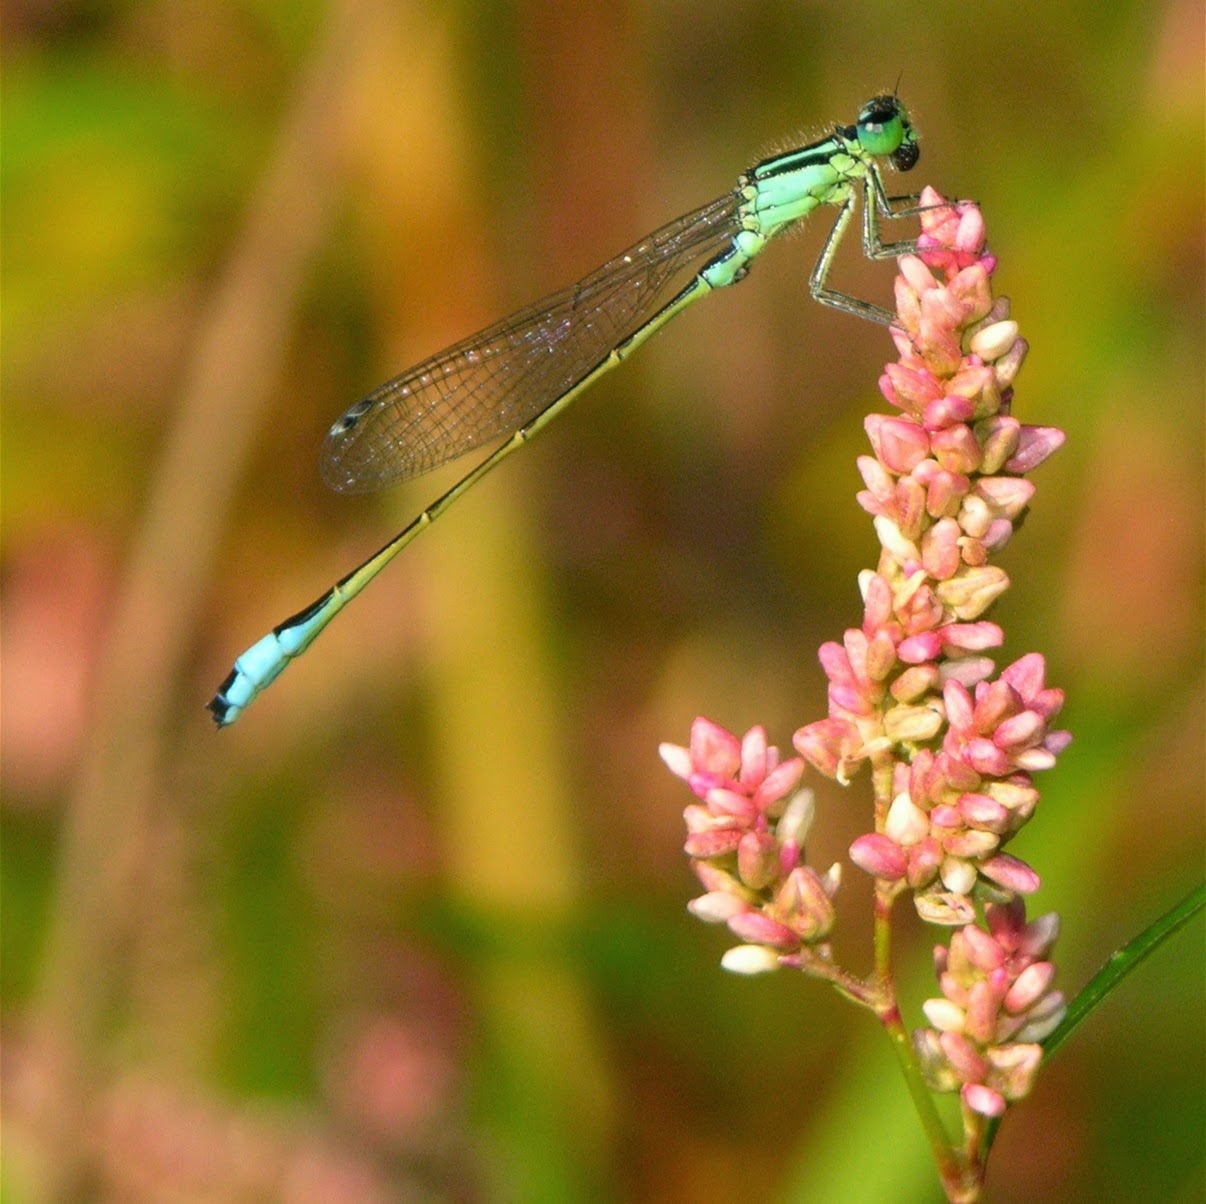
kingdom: Animalia
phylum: Arthropoda
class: Insecta
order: Odonata
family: Coenagrionidae
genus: Ischnura
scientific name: Ischnura elegans
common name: Blue-tailed damselfly
